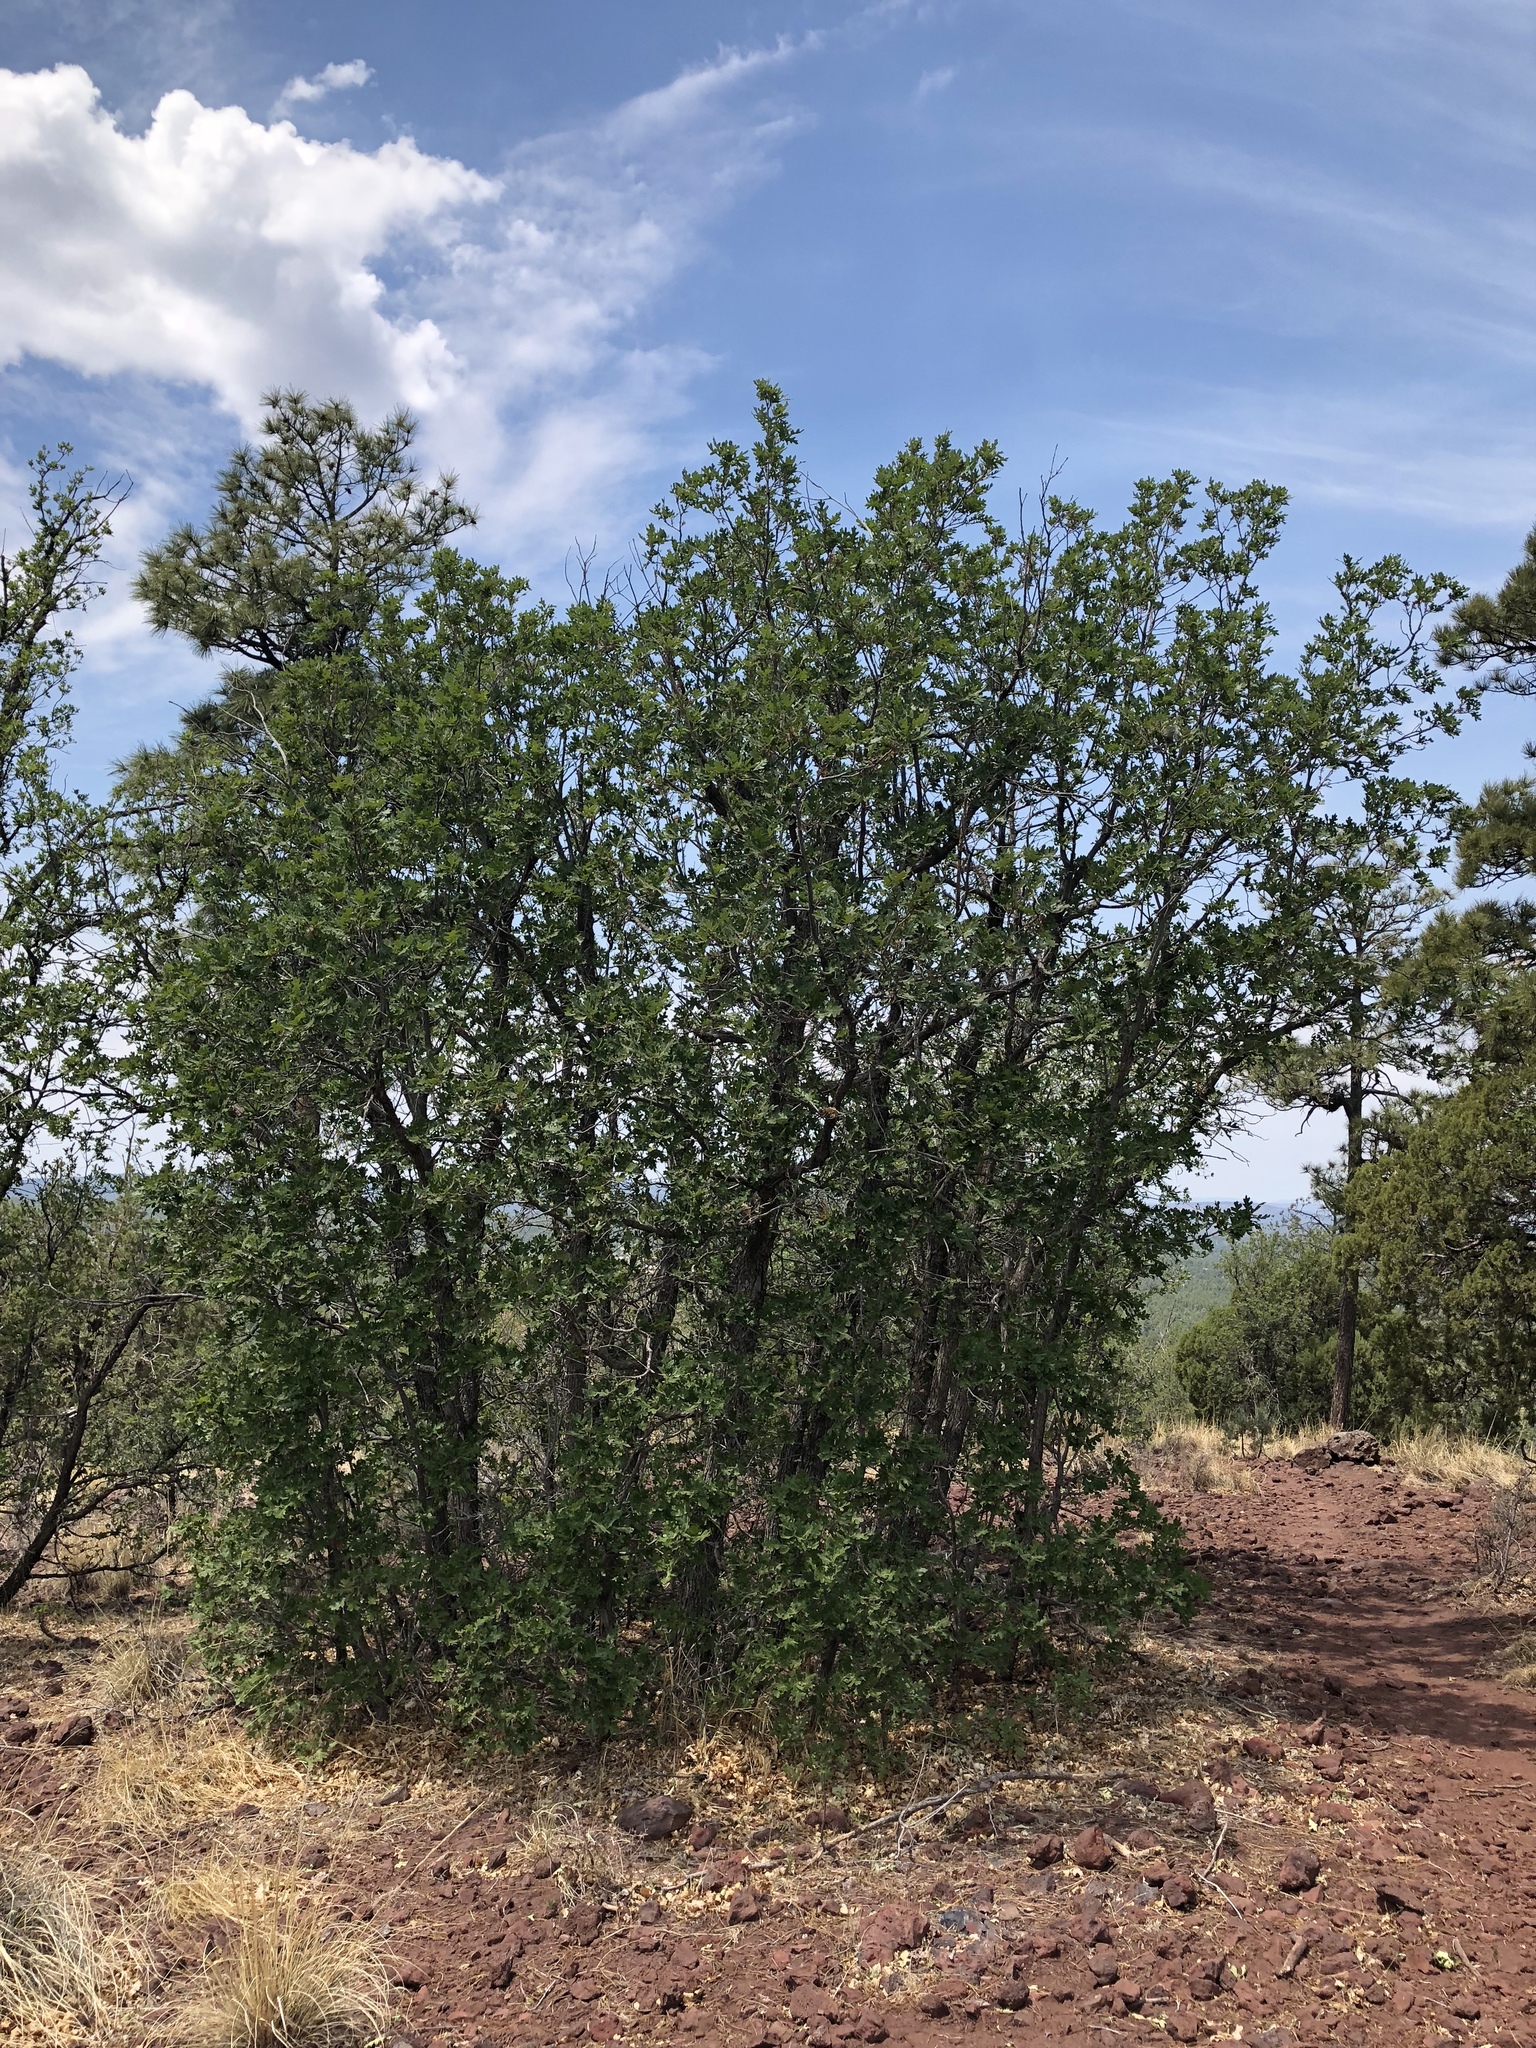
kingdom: Plantae
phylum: Tracheophyta
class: Magnoliopsida
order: Fagales
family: Fagaceae
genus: Quercus
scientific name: Quercus gambelii
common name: Gambel oak
